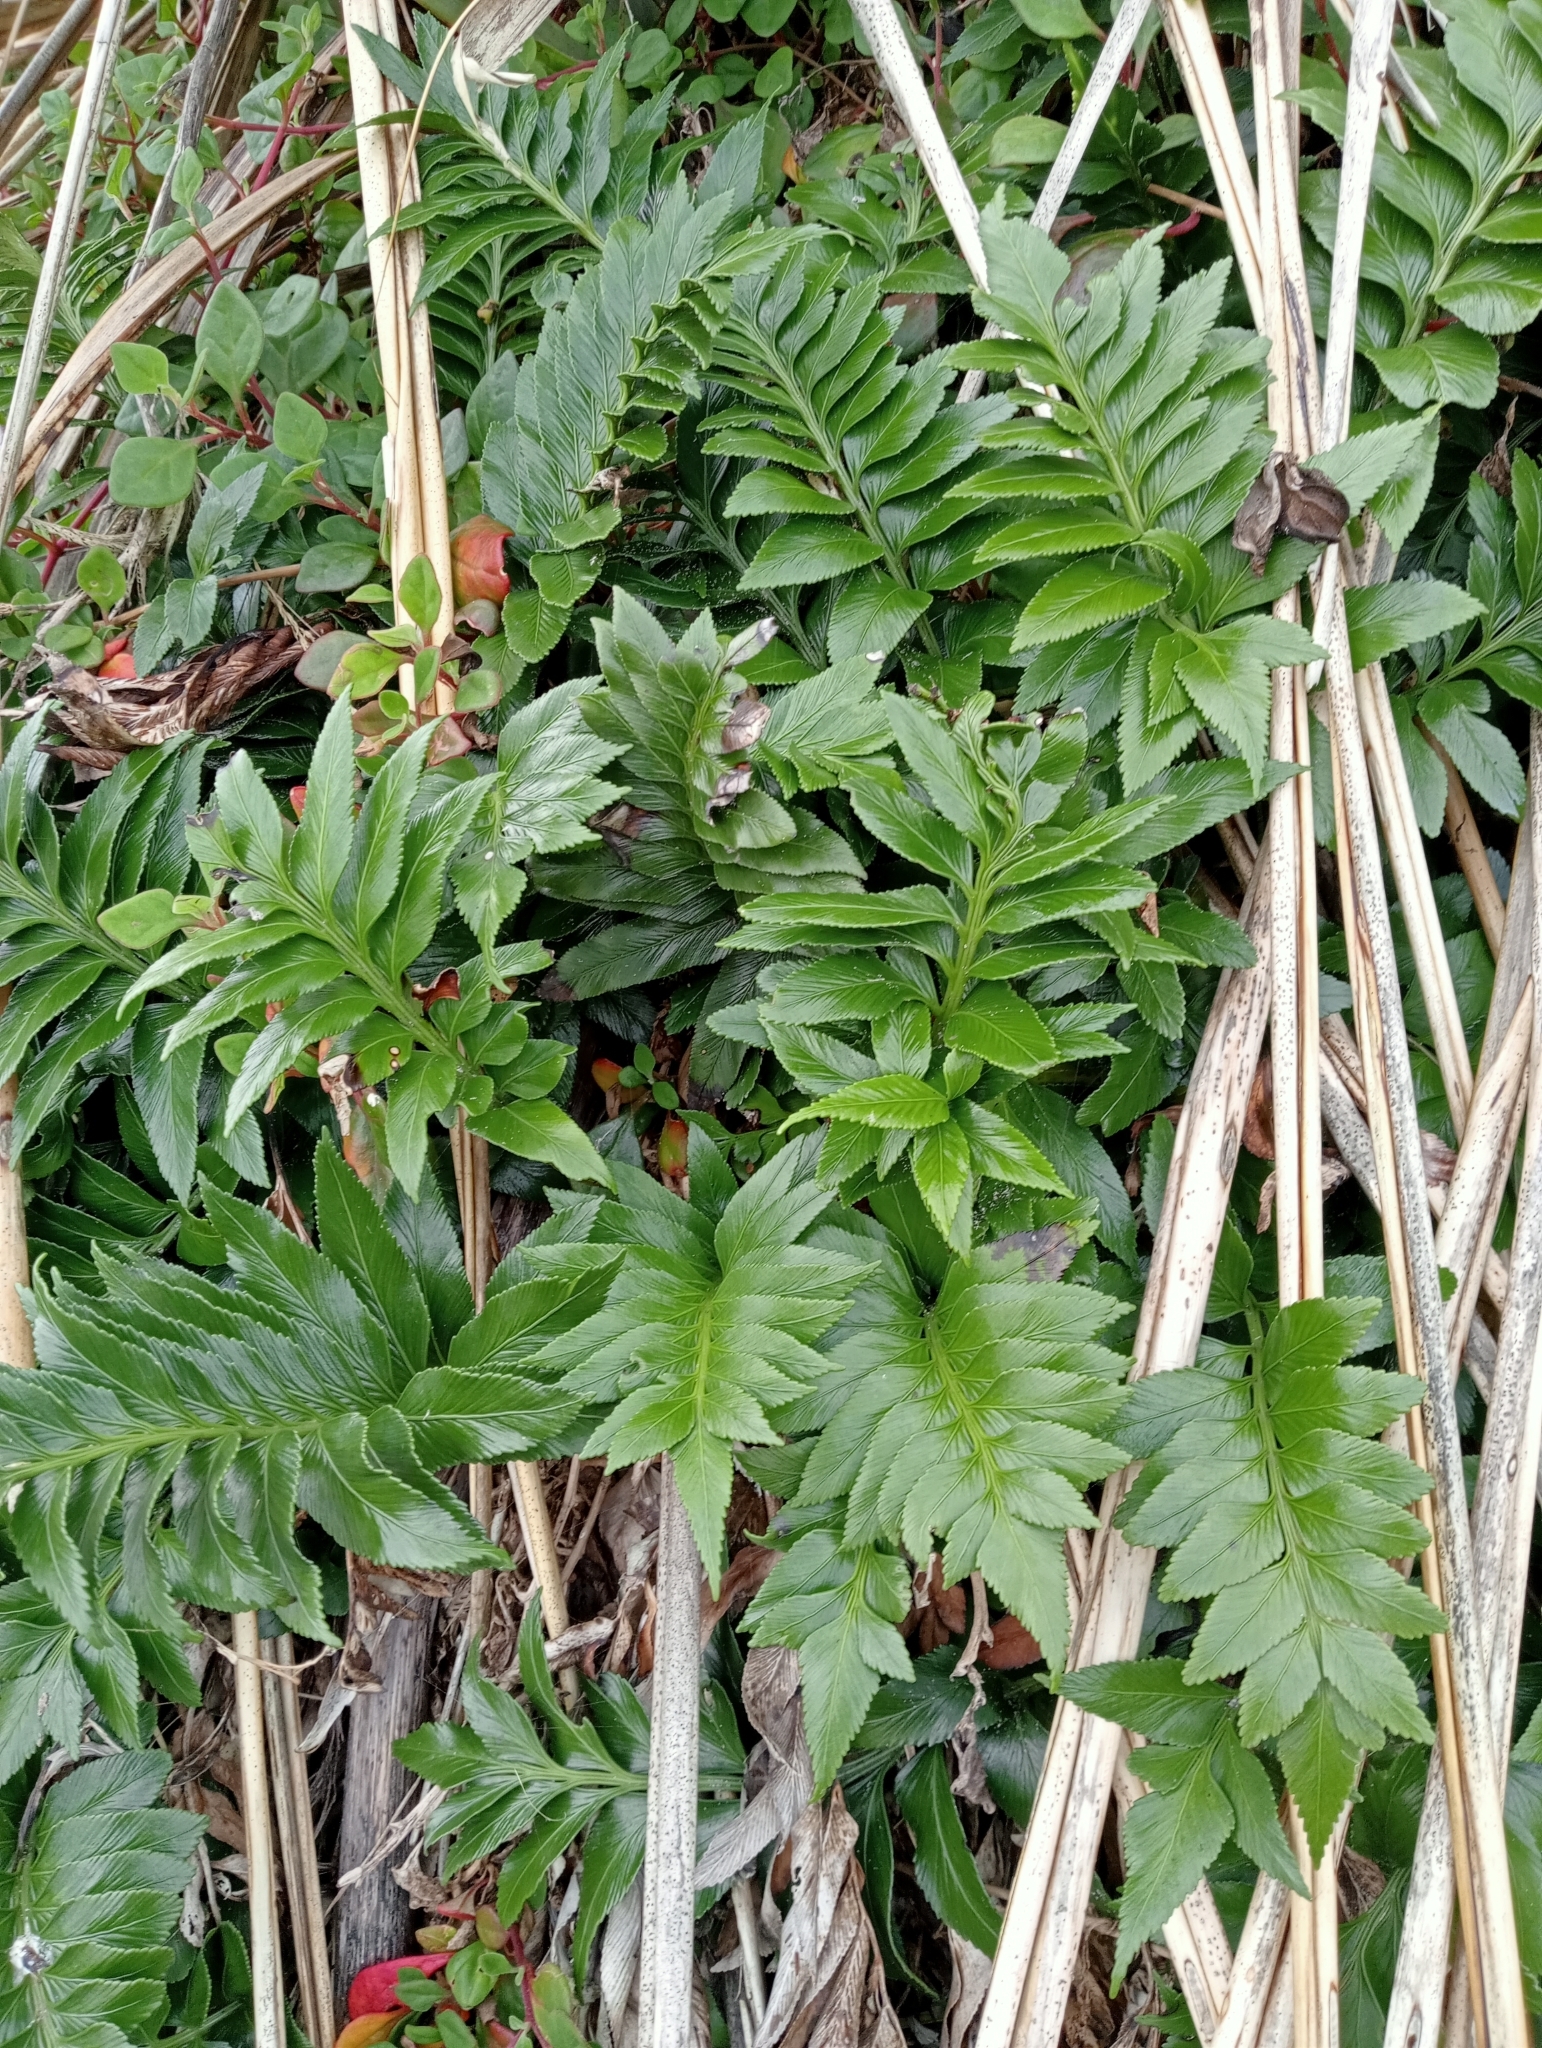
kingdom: Plantae
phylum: Tracheophyta
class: Polypodiopsida
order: Polypodiales
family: Aspleniaceae
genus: Asplenium
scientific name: Asplenium obtusatum
